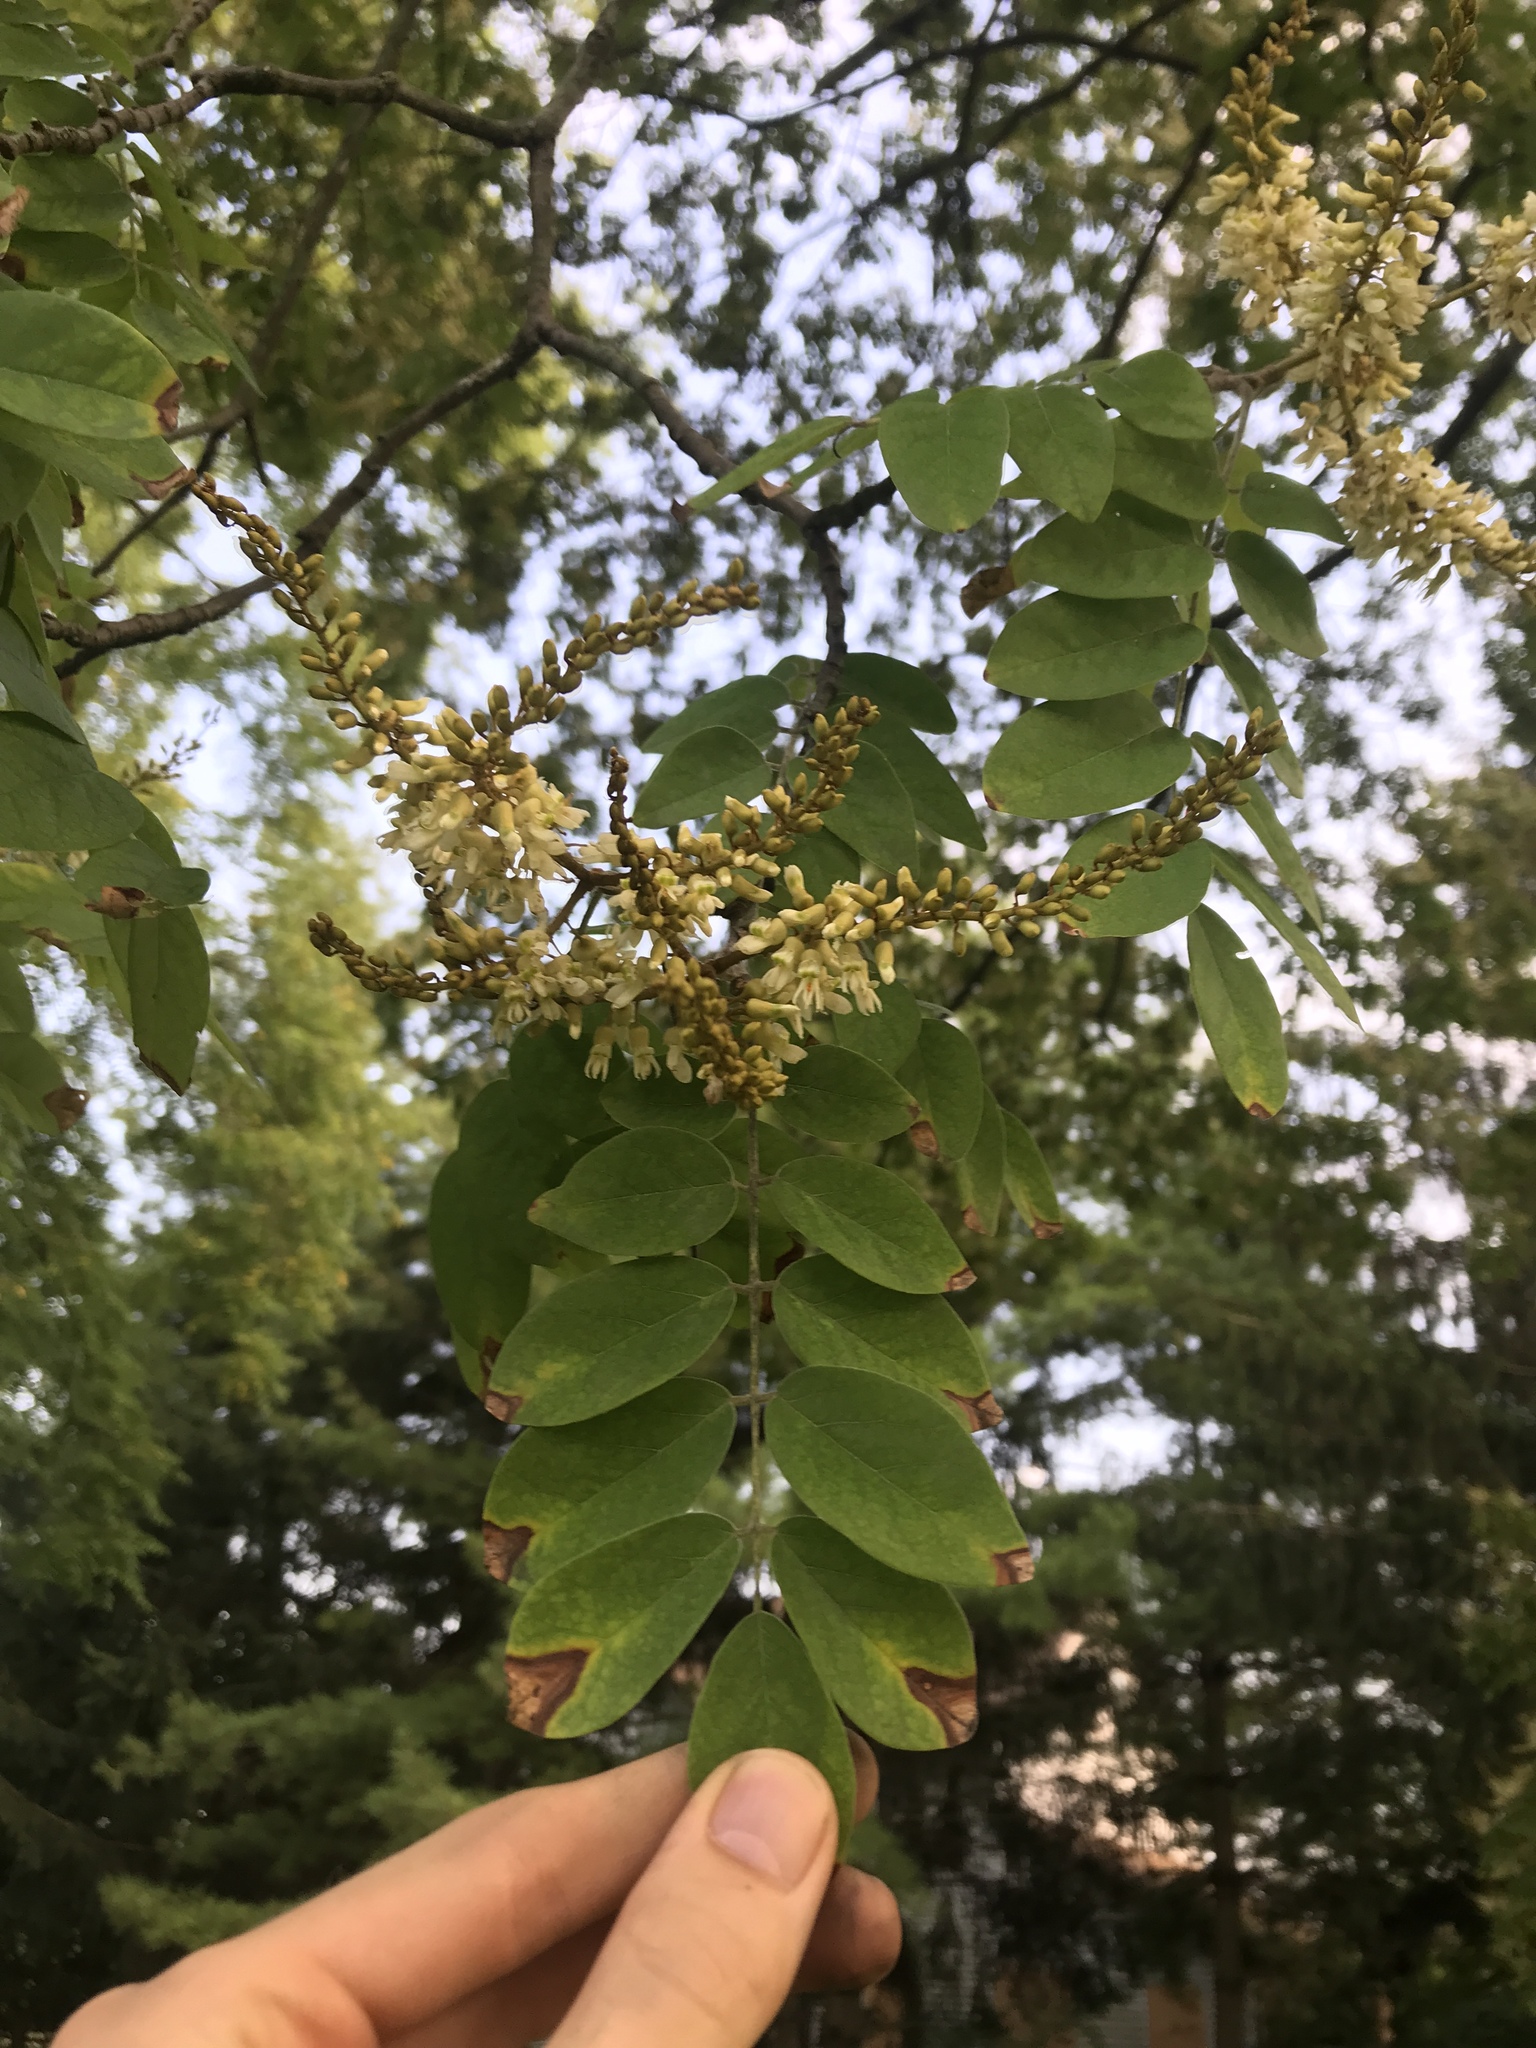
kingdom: Plantae
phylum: Tracheophyta
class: Magnoliopsida
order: Fabales
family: Fabaceae
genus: Robinia
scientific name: Robinia pseudoacacia
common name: Black locust
